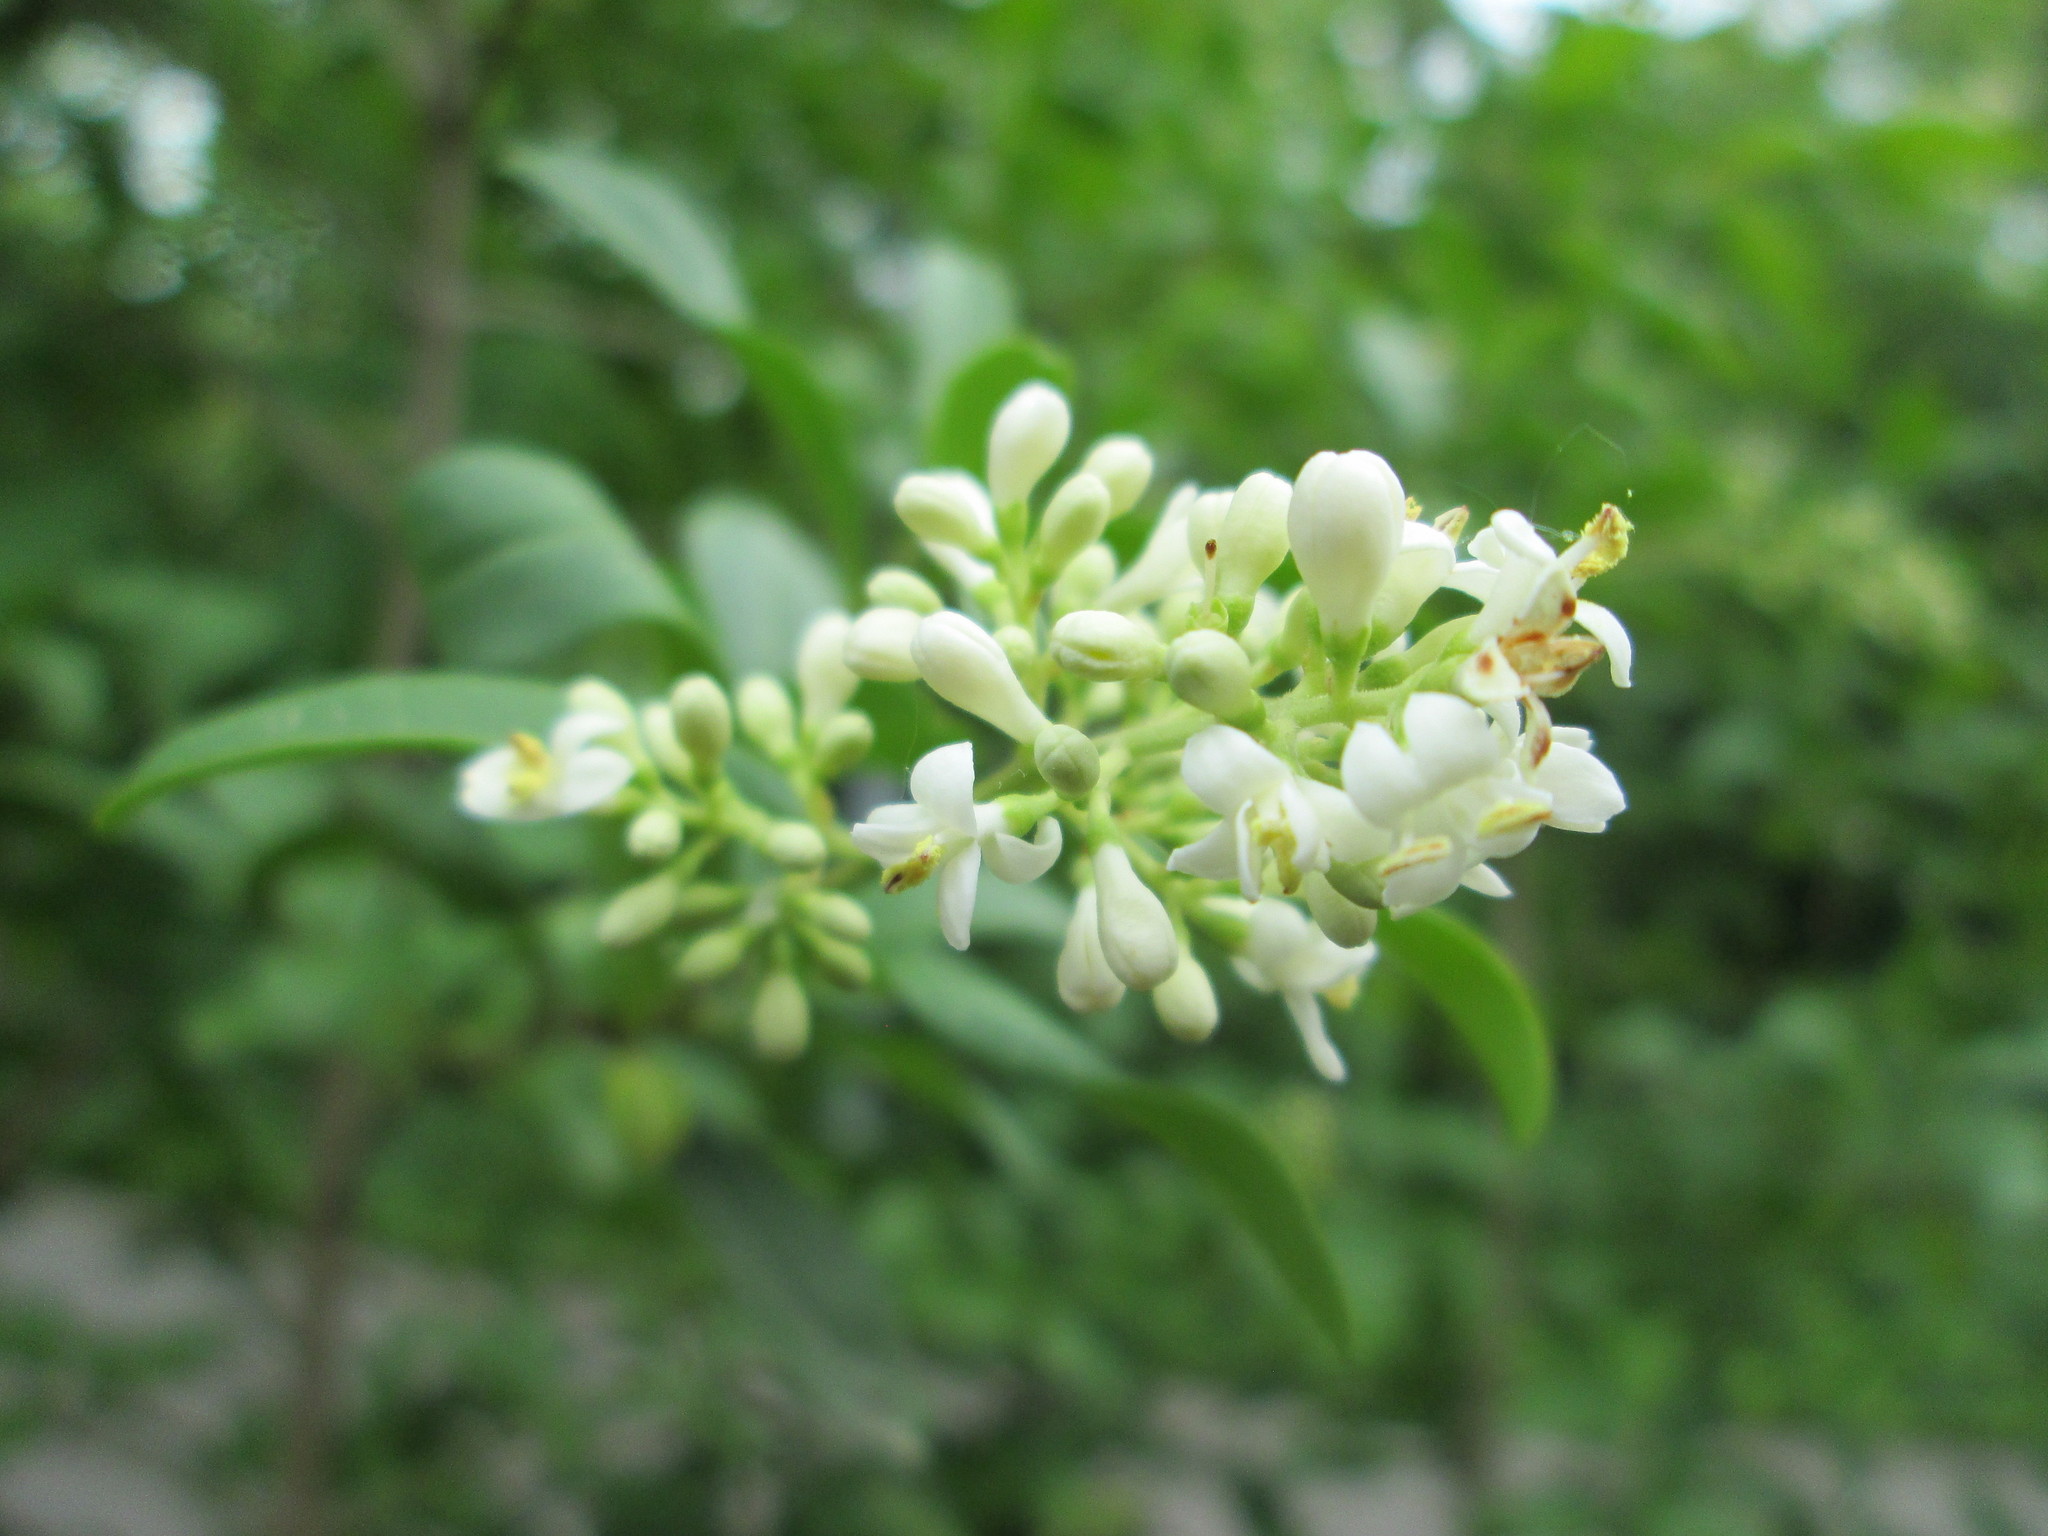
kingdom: Plantae
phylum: Tracheophyta
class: Magnoliopsida
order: Lamiales
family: Oleaceae
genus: Ligustrum
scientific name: Ligustrum vulgare
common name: Wild privet
